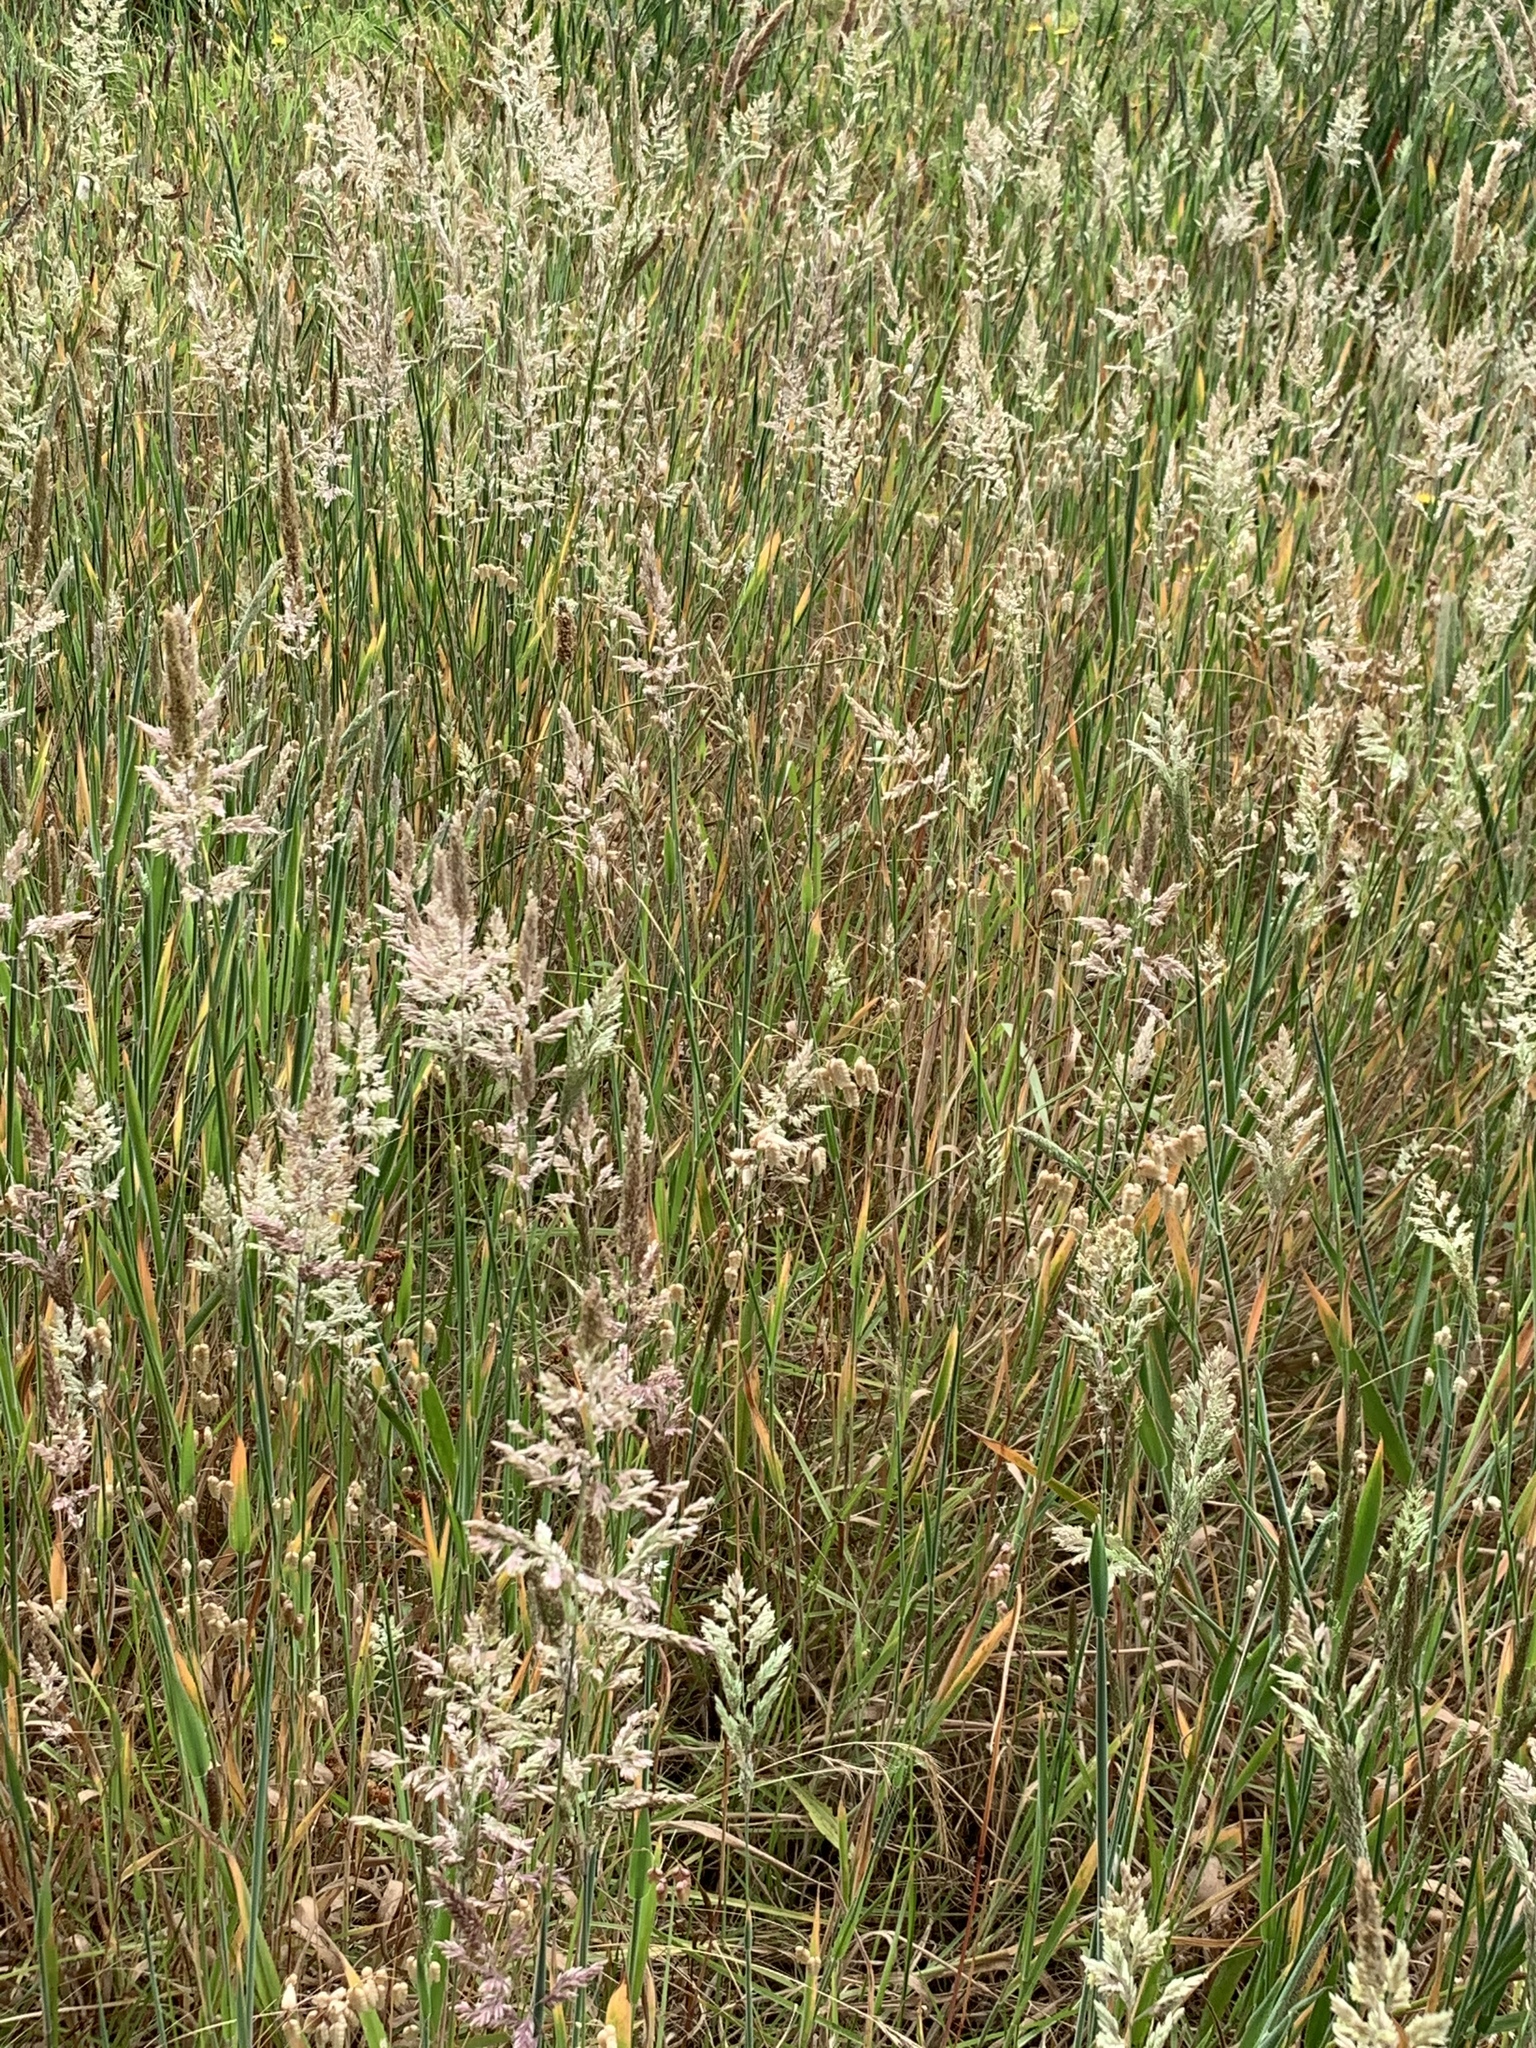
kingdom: Plantae
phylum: Tracheophyta
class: Liliopsida
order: Poales
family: Poaceae
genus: Holcus
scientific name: Holcus lanatus
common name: Yorkshire-fog
